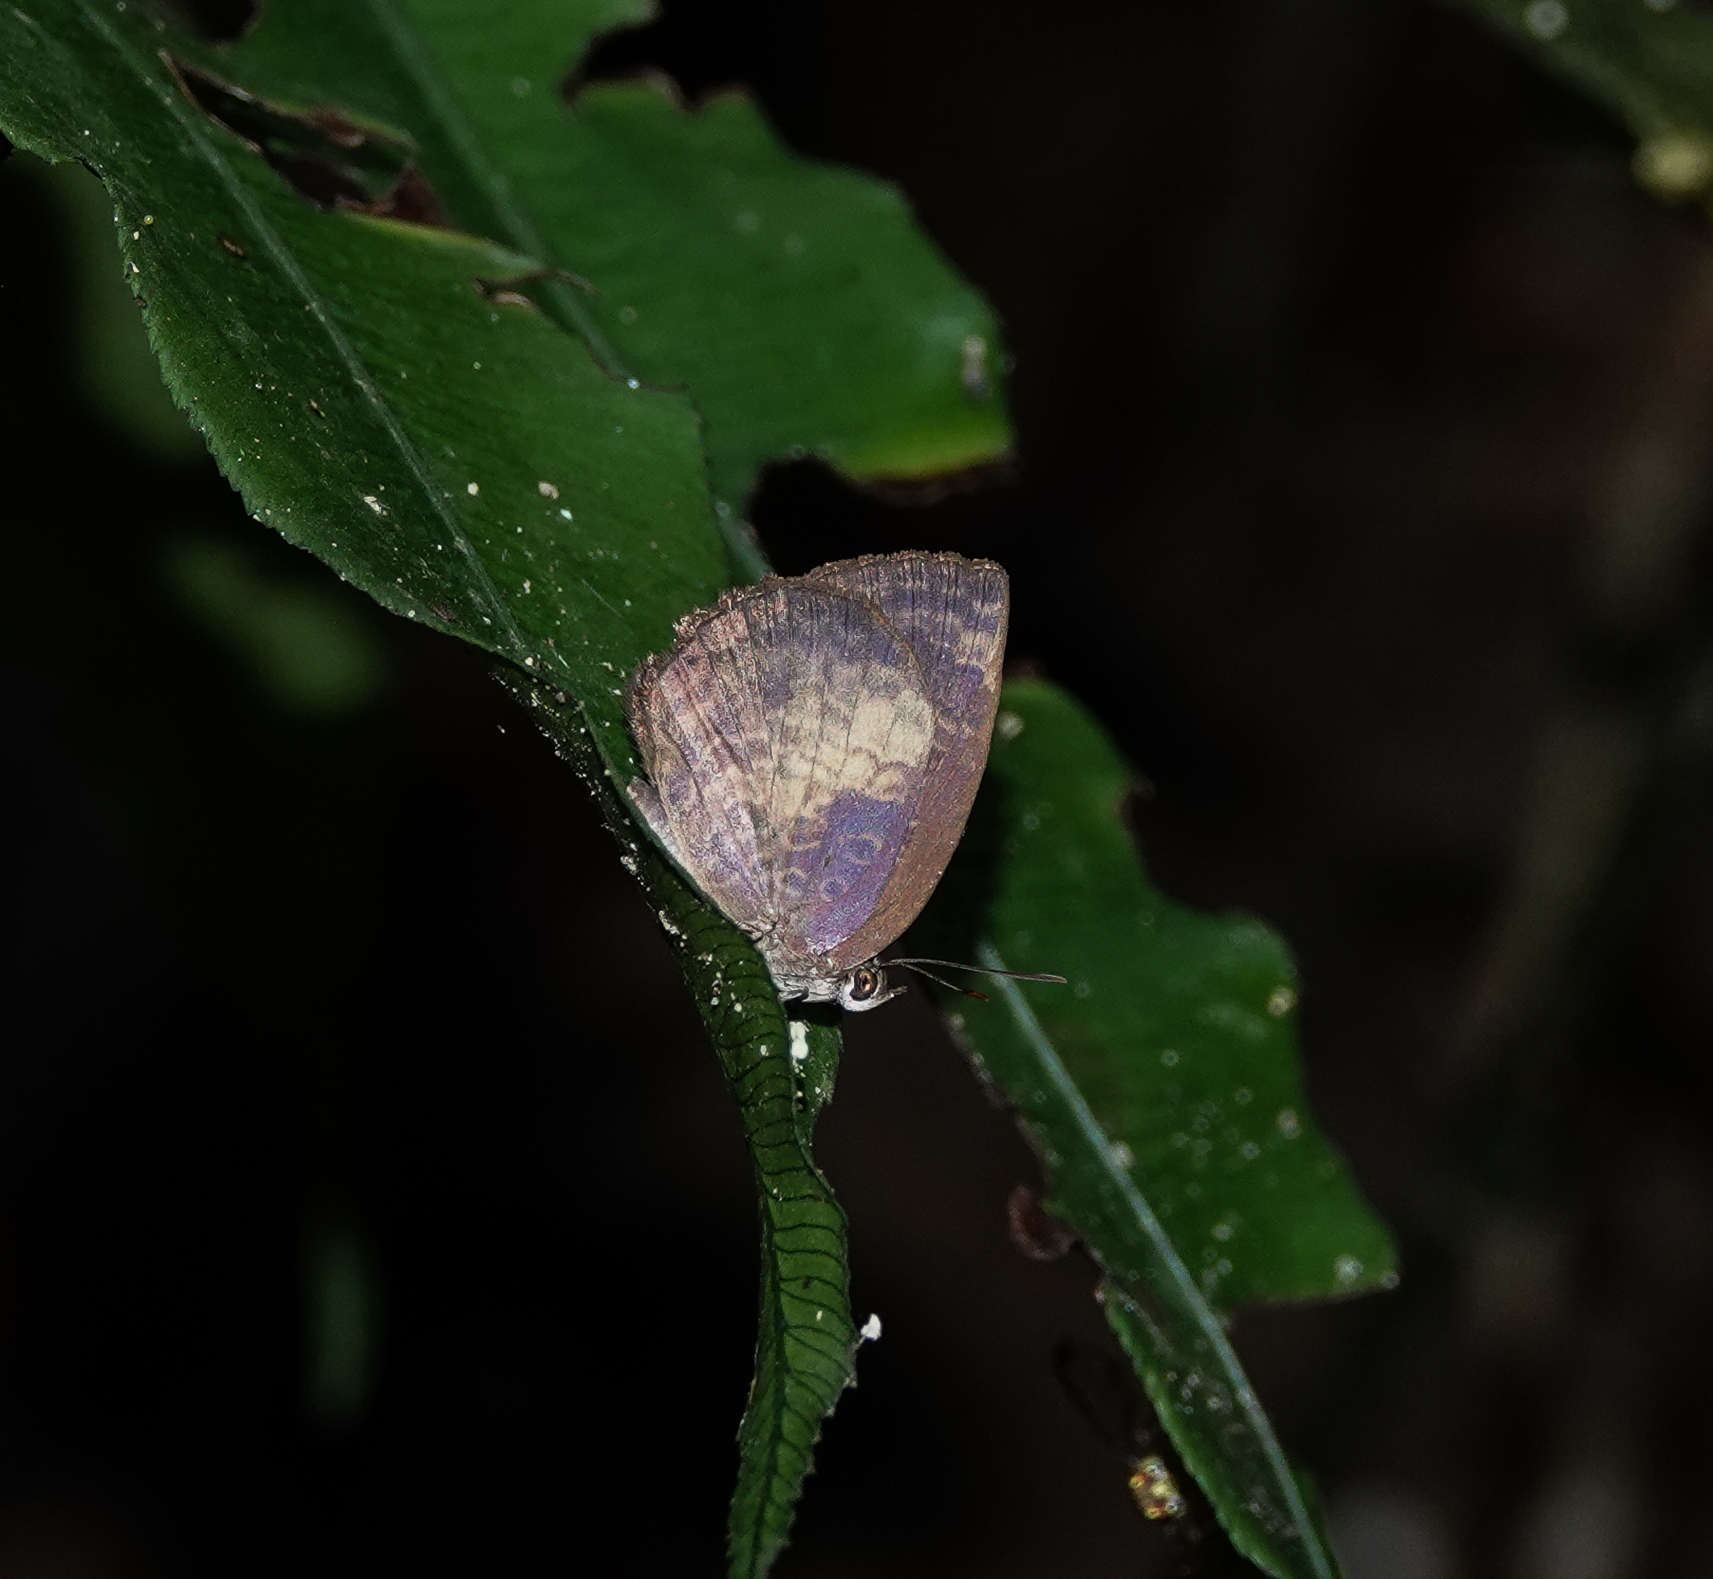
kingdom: Animalia
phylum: Arthropoda
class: Insecta
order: Lepidoptera
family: Lycaenidae
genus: Arhopala
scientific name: Arhopala perimuta
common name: Yellowdisc oakblue
